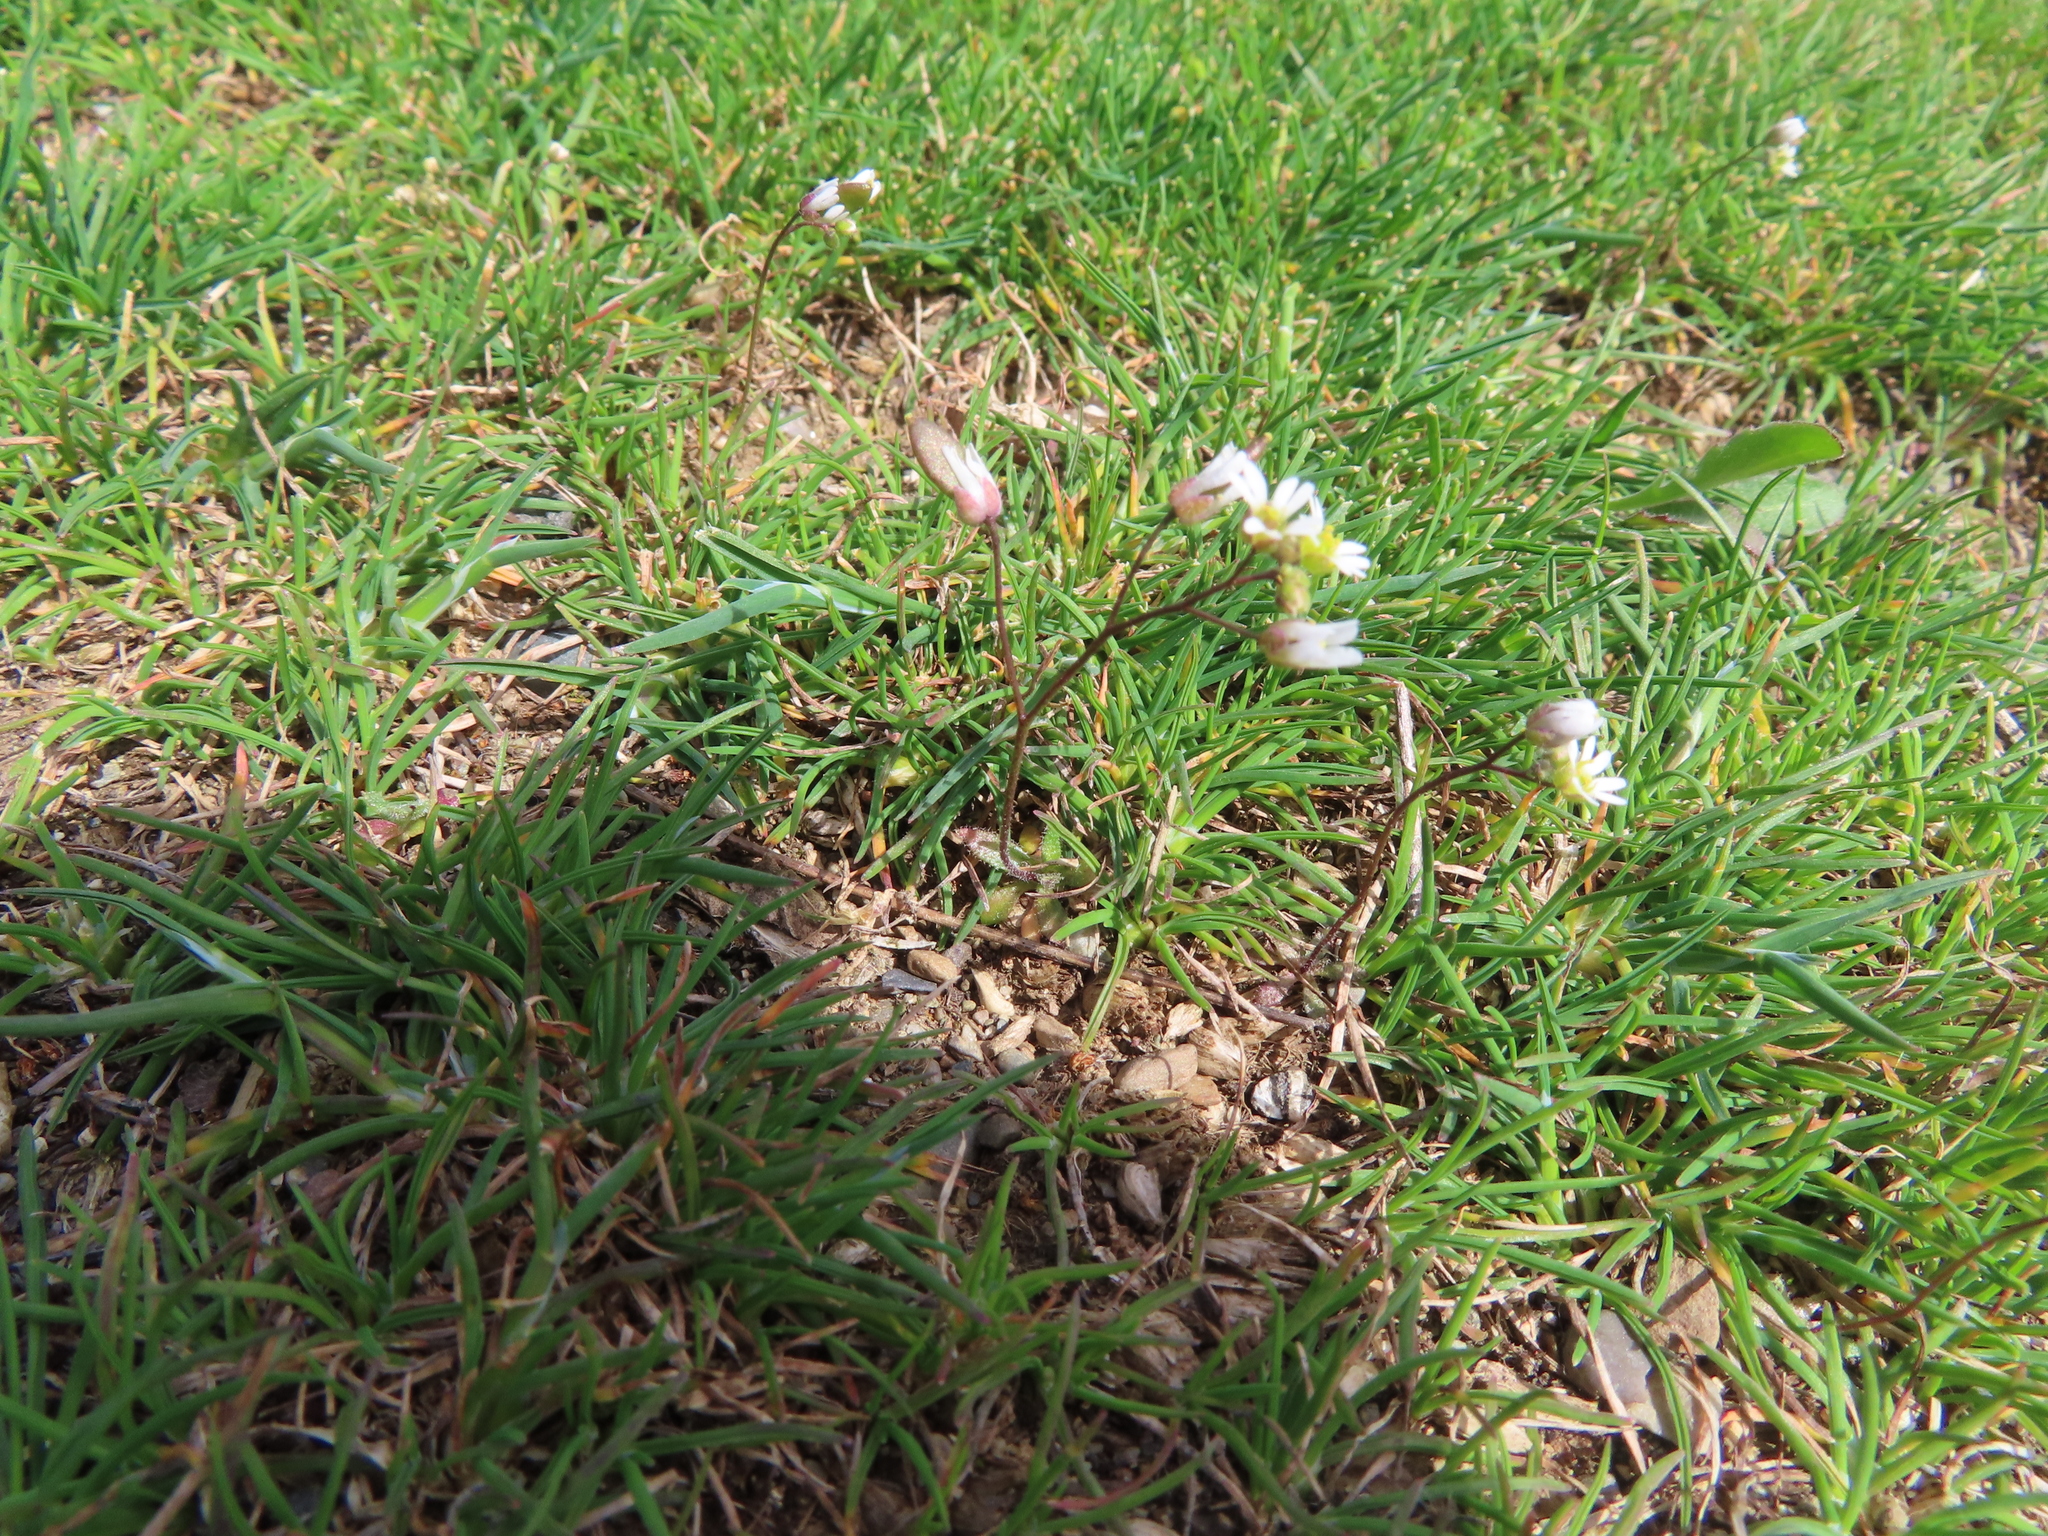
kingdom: Plantae
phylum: Tracheophyta
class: Magnoliopsida
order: Brassicales
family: Brassicaceae
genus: Draba
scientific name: Draba verna
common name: Spring draba
